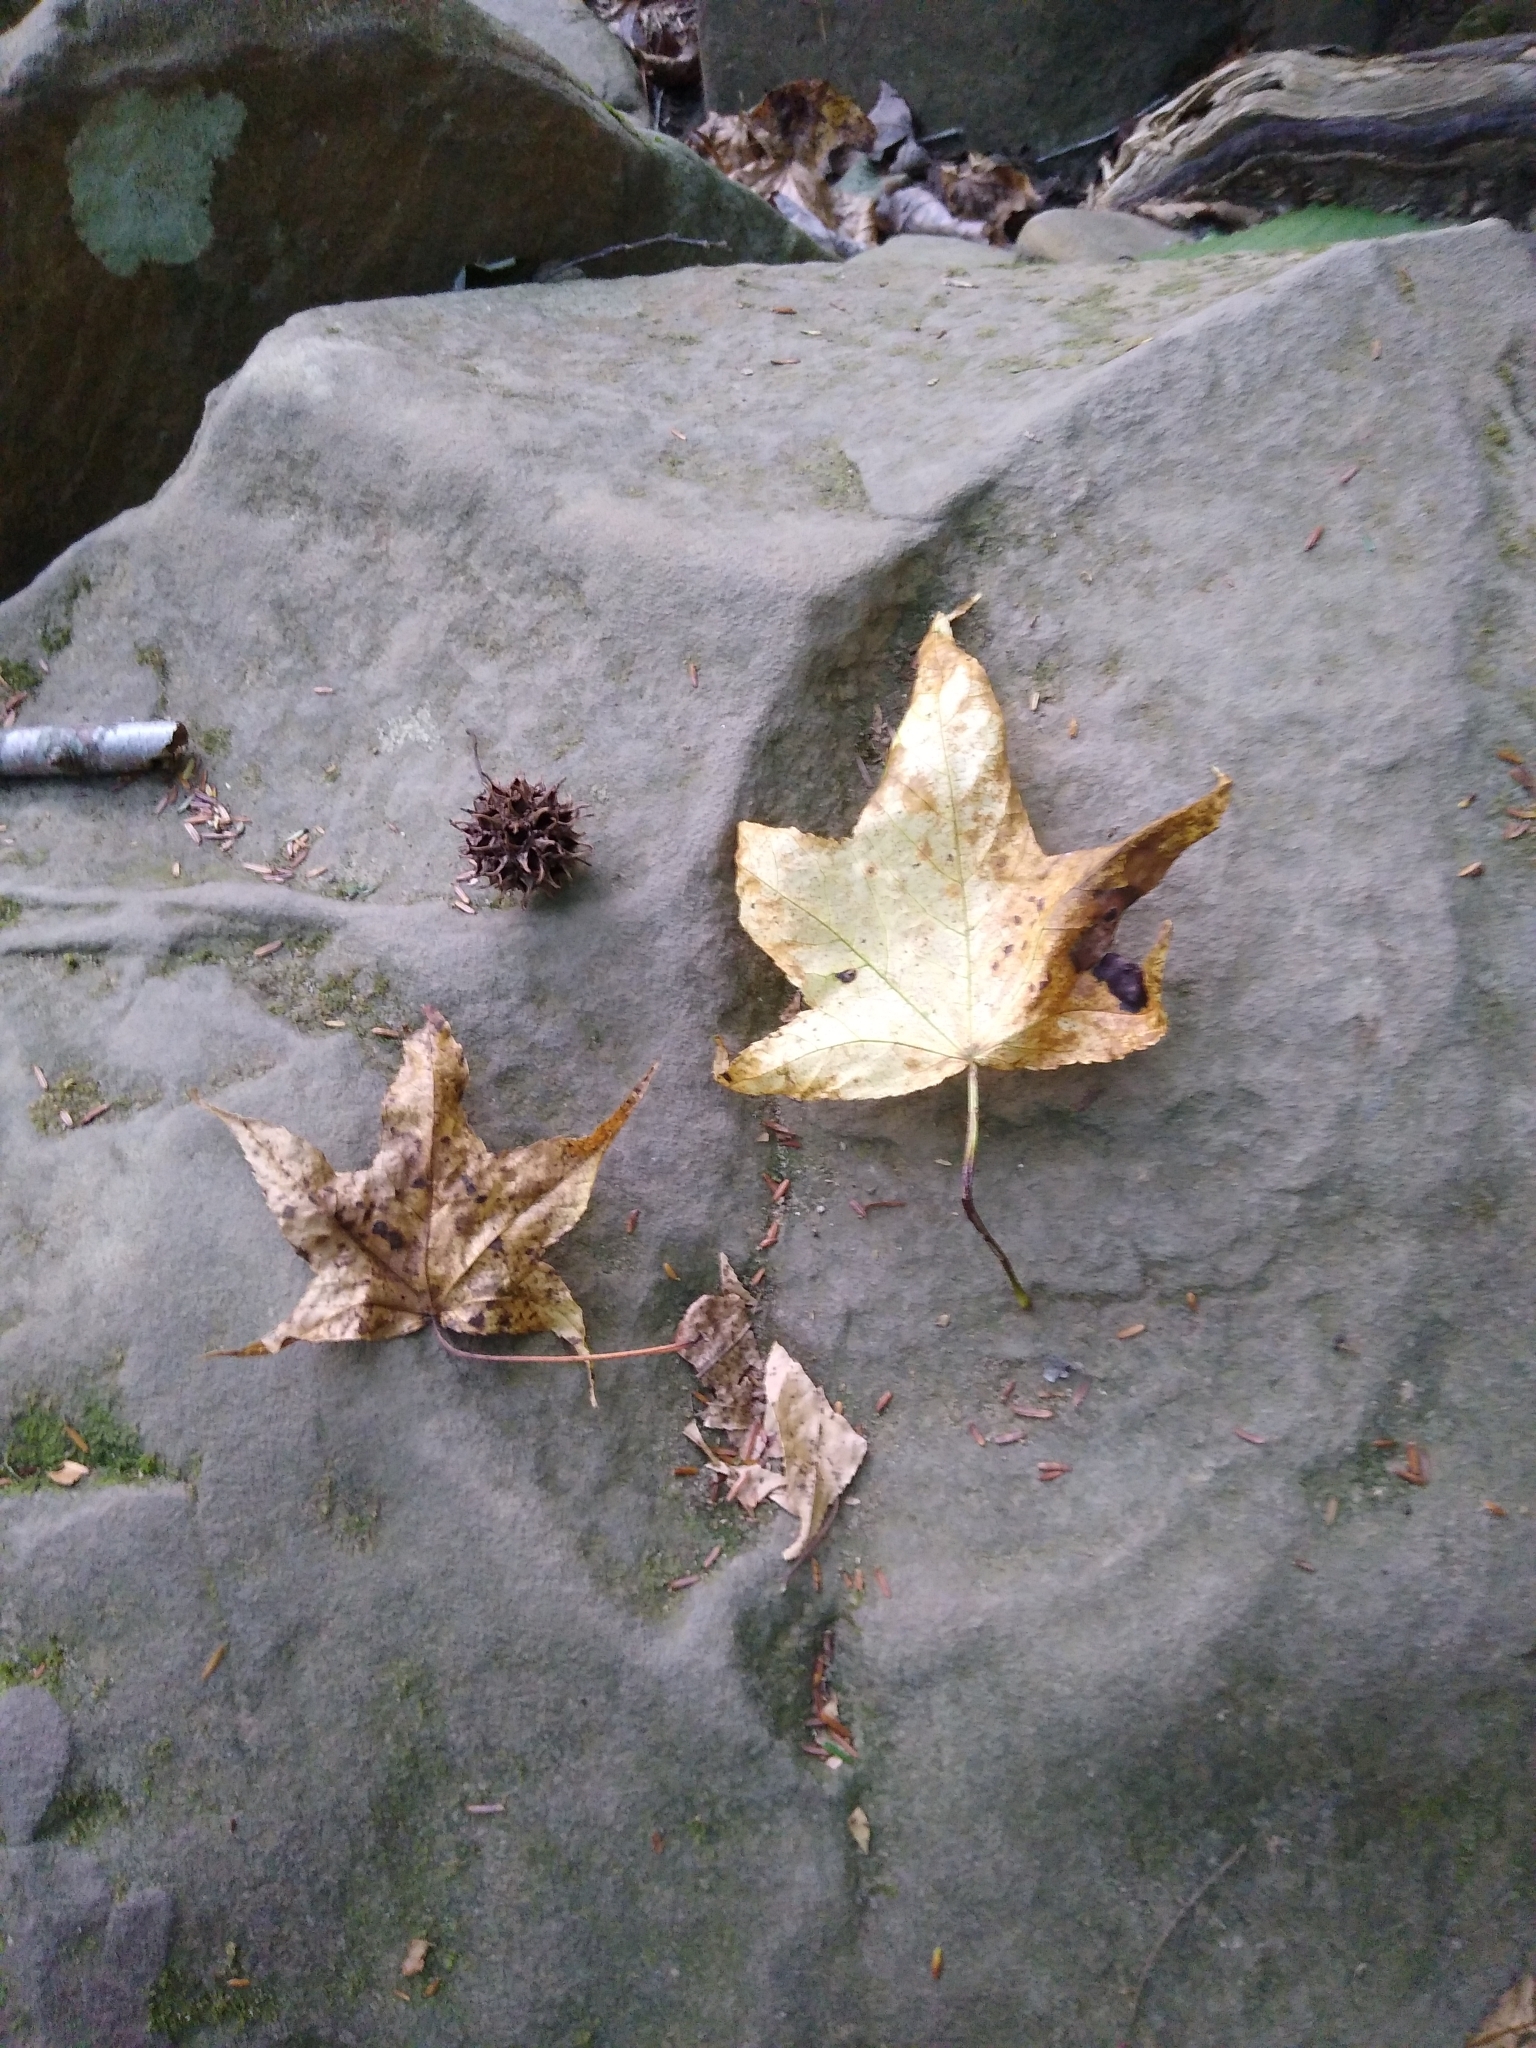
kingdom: Plantae
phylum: Tracheophyta
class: Magnoliopsida
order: Saxifragales
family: Altingiaceae
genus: Liquidambar
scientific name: Liquidambar styraciflua
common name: Sweet gum
